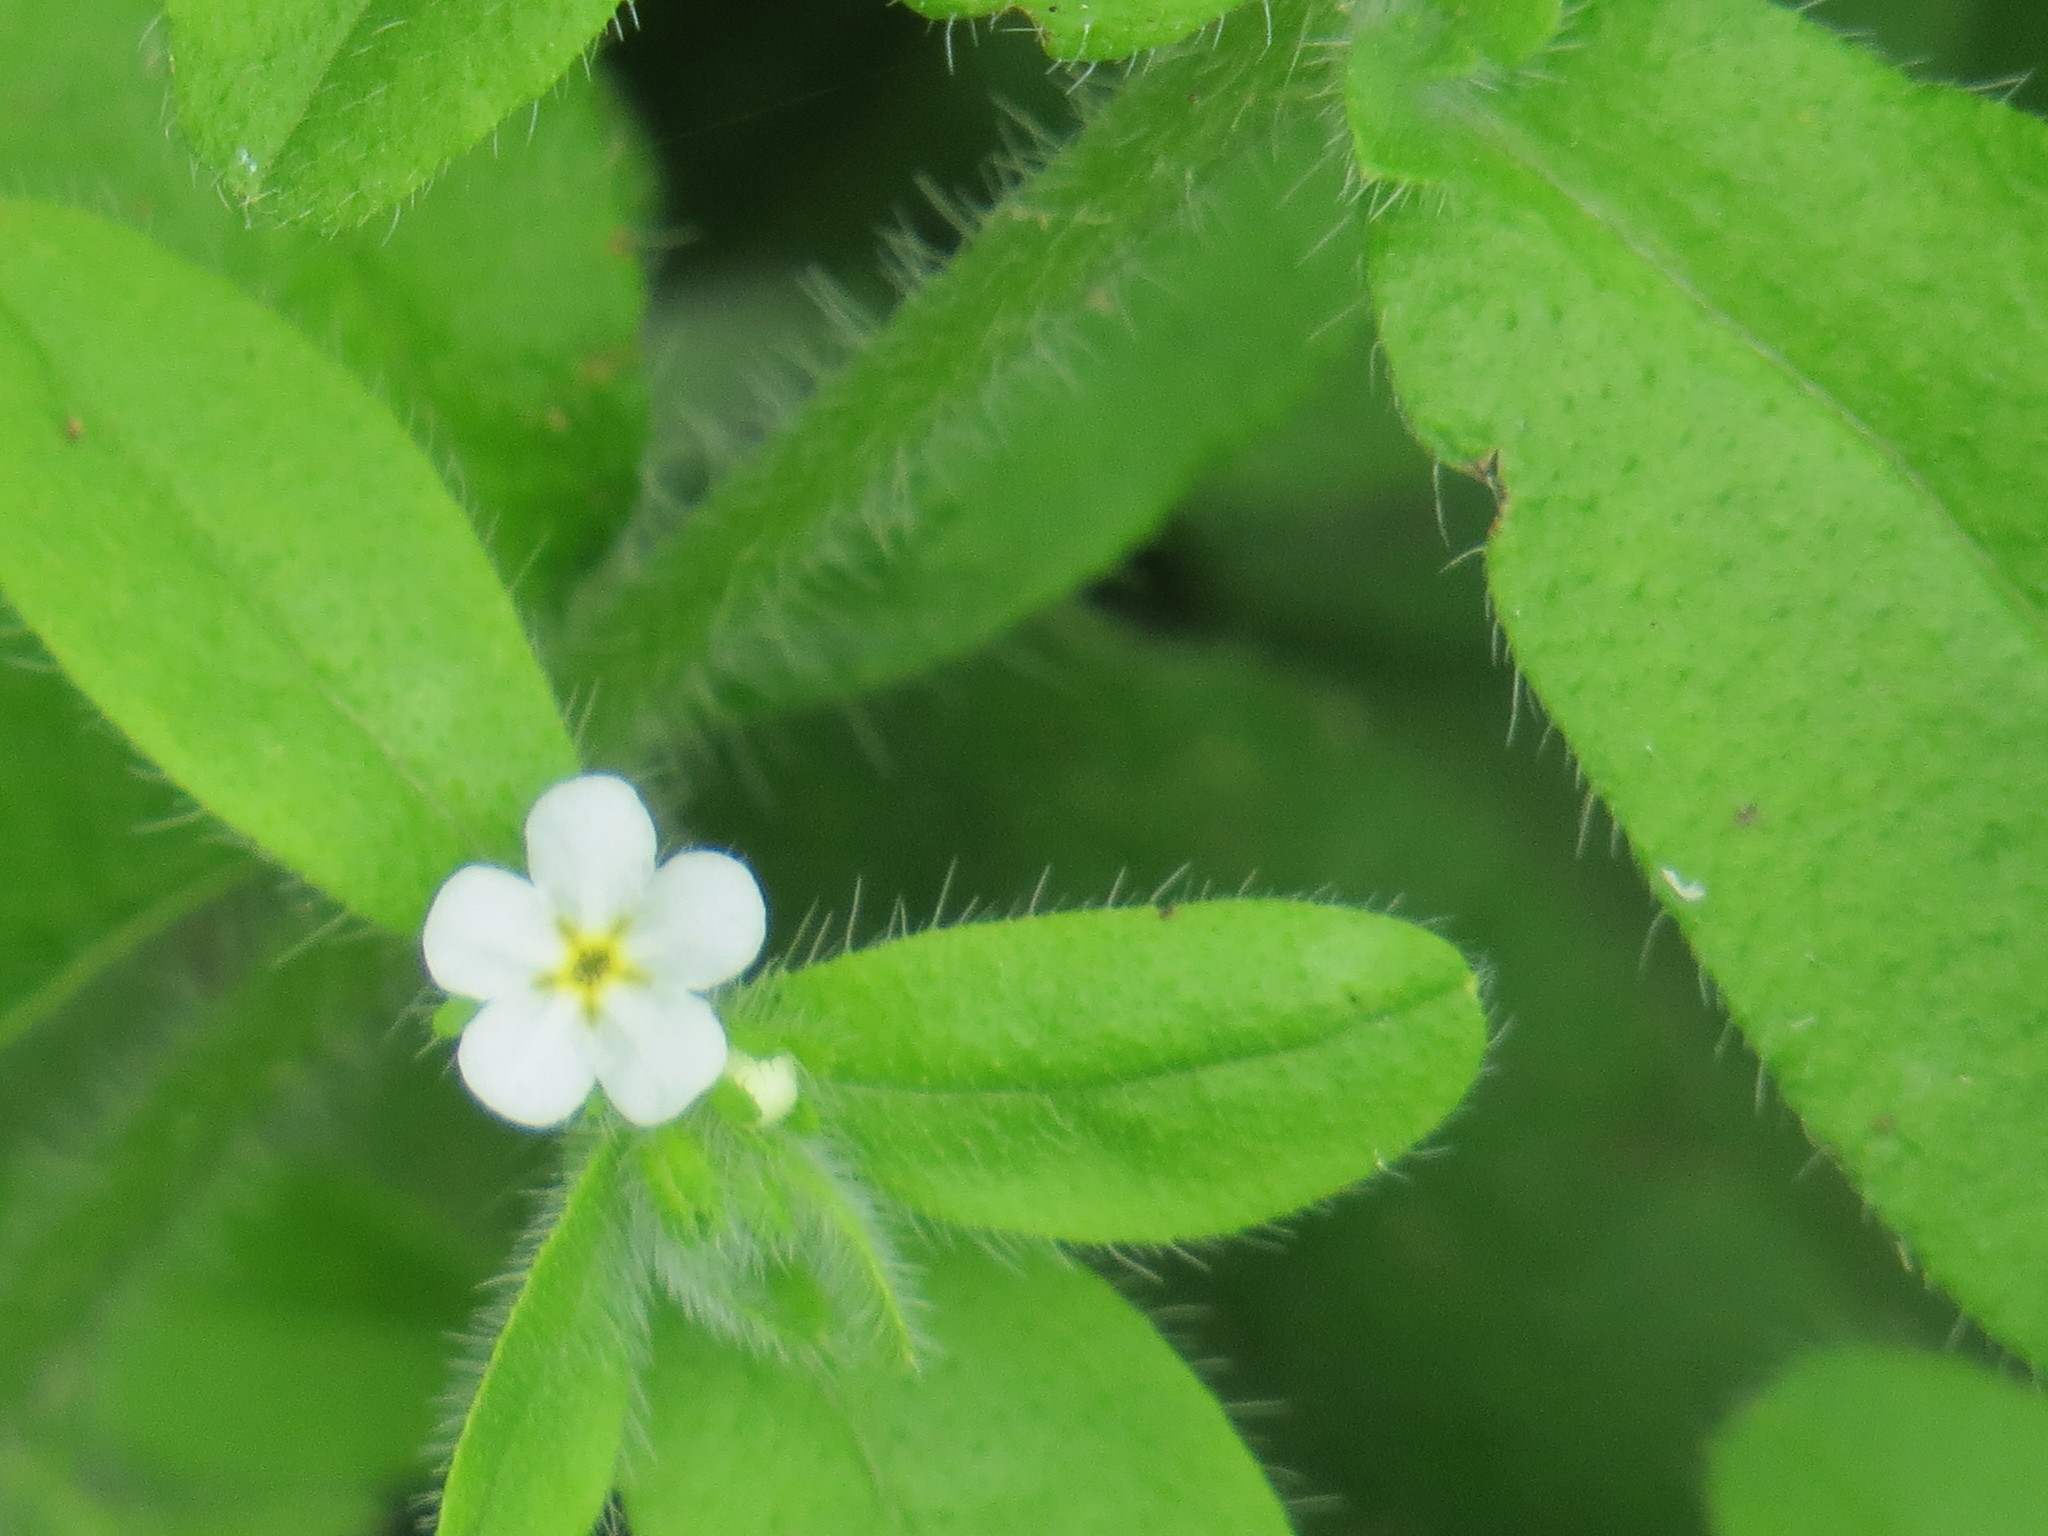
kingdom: Plantae
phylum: Tracheophyta
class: Magnoliopsida
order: Boraginales
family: Boraginaceae
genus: Lithospermum
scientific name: Lithospermum matamorense
